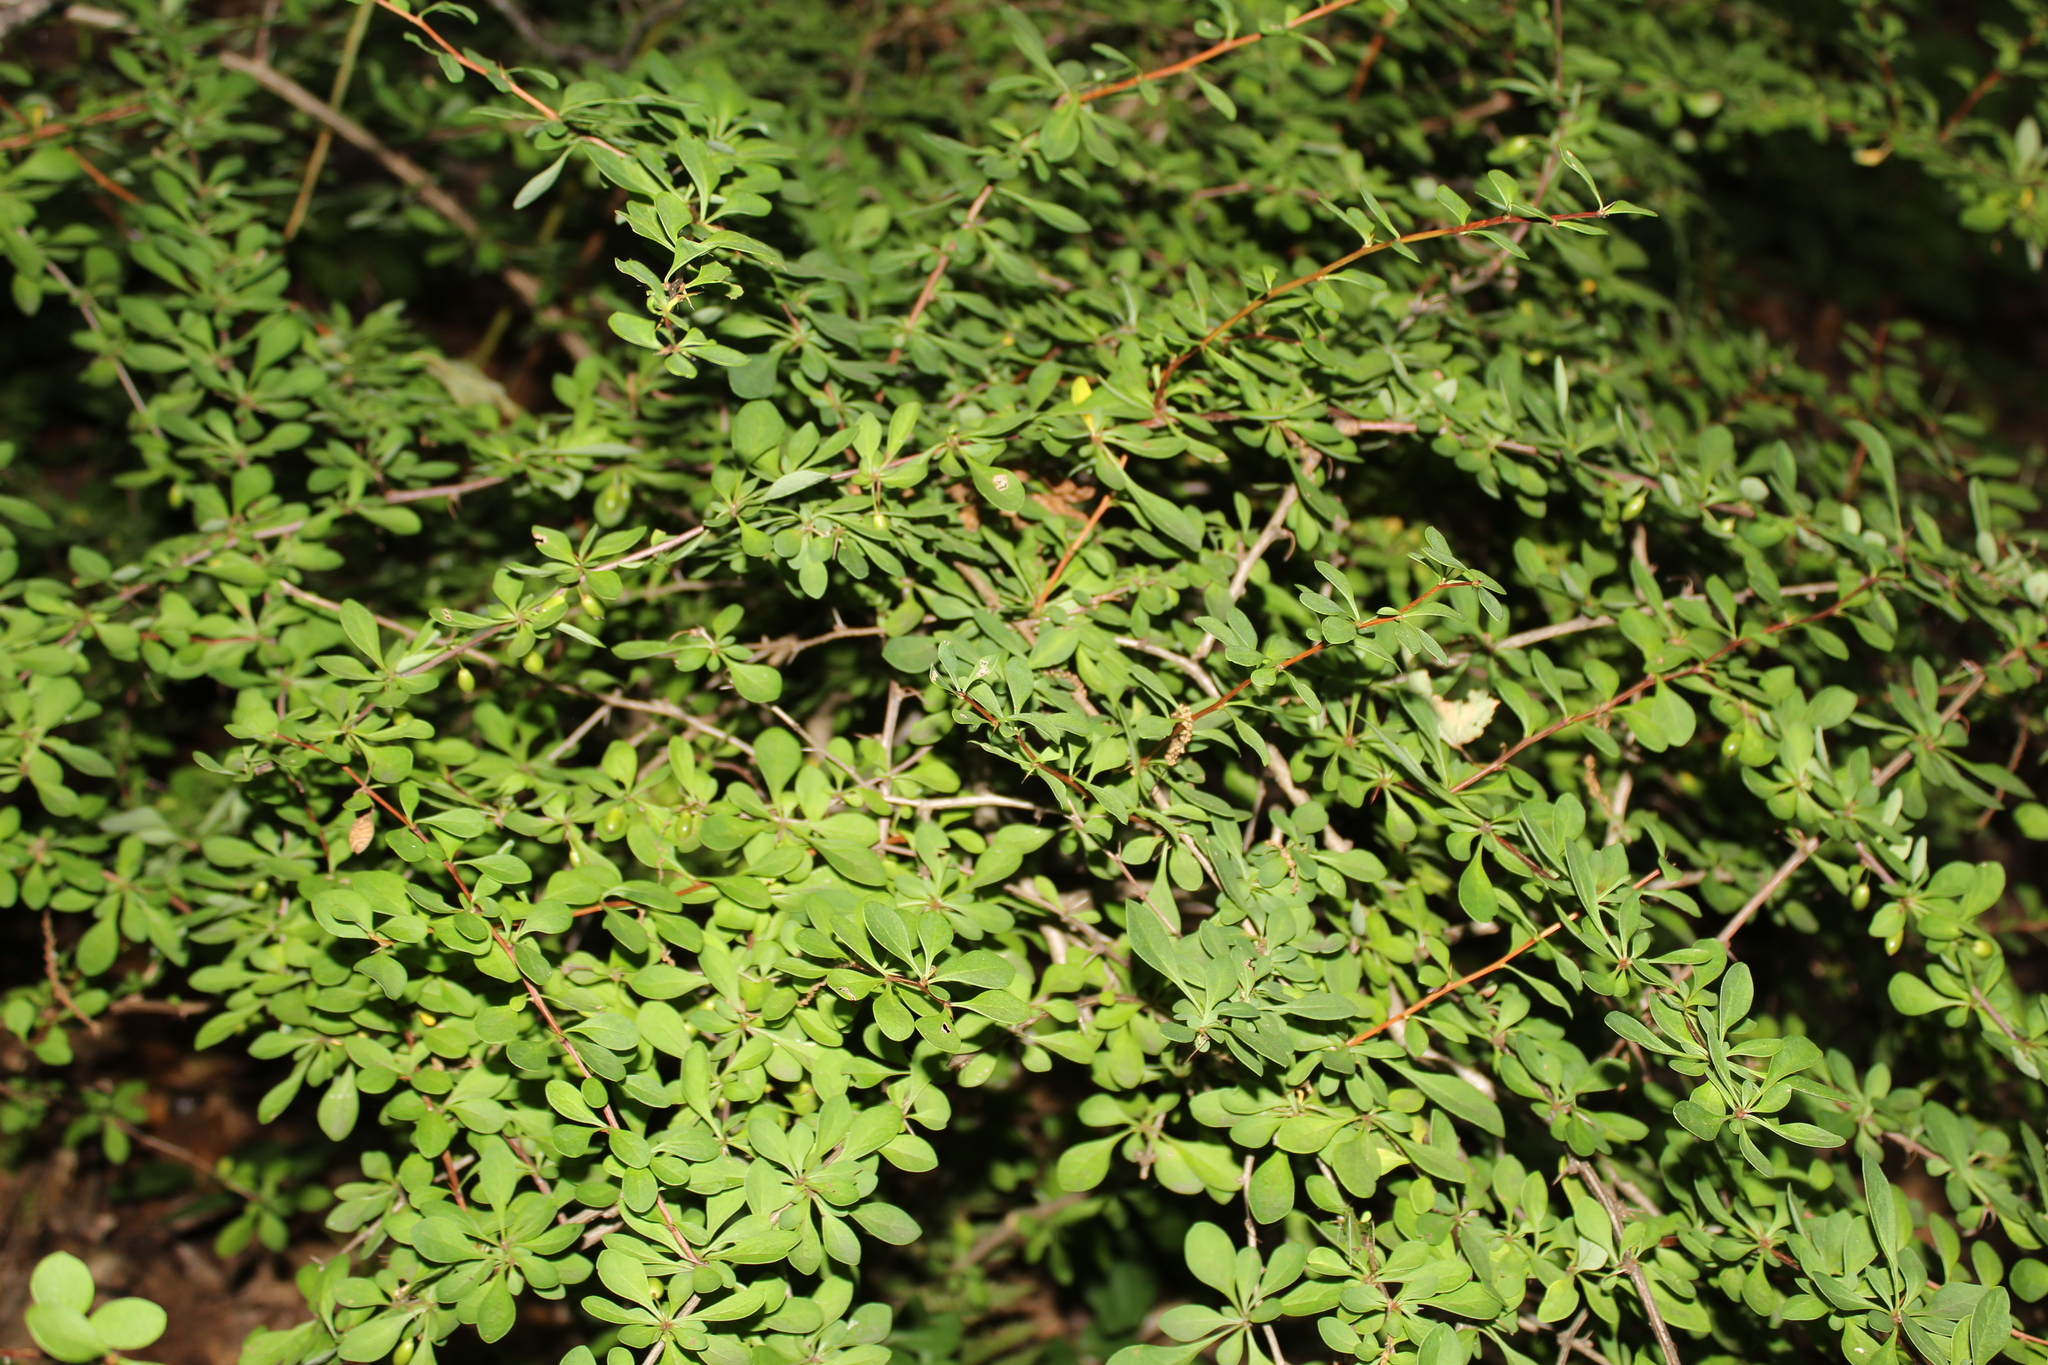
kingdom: Plantae
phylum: Tracheophyta
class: Magnoliopsida
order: Ranunculales
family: Berberidaceae
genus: Berberis
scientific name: Berberis thunbergii
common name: Japanese barberry
